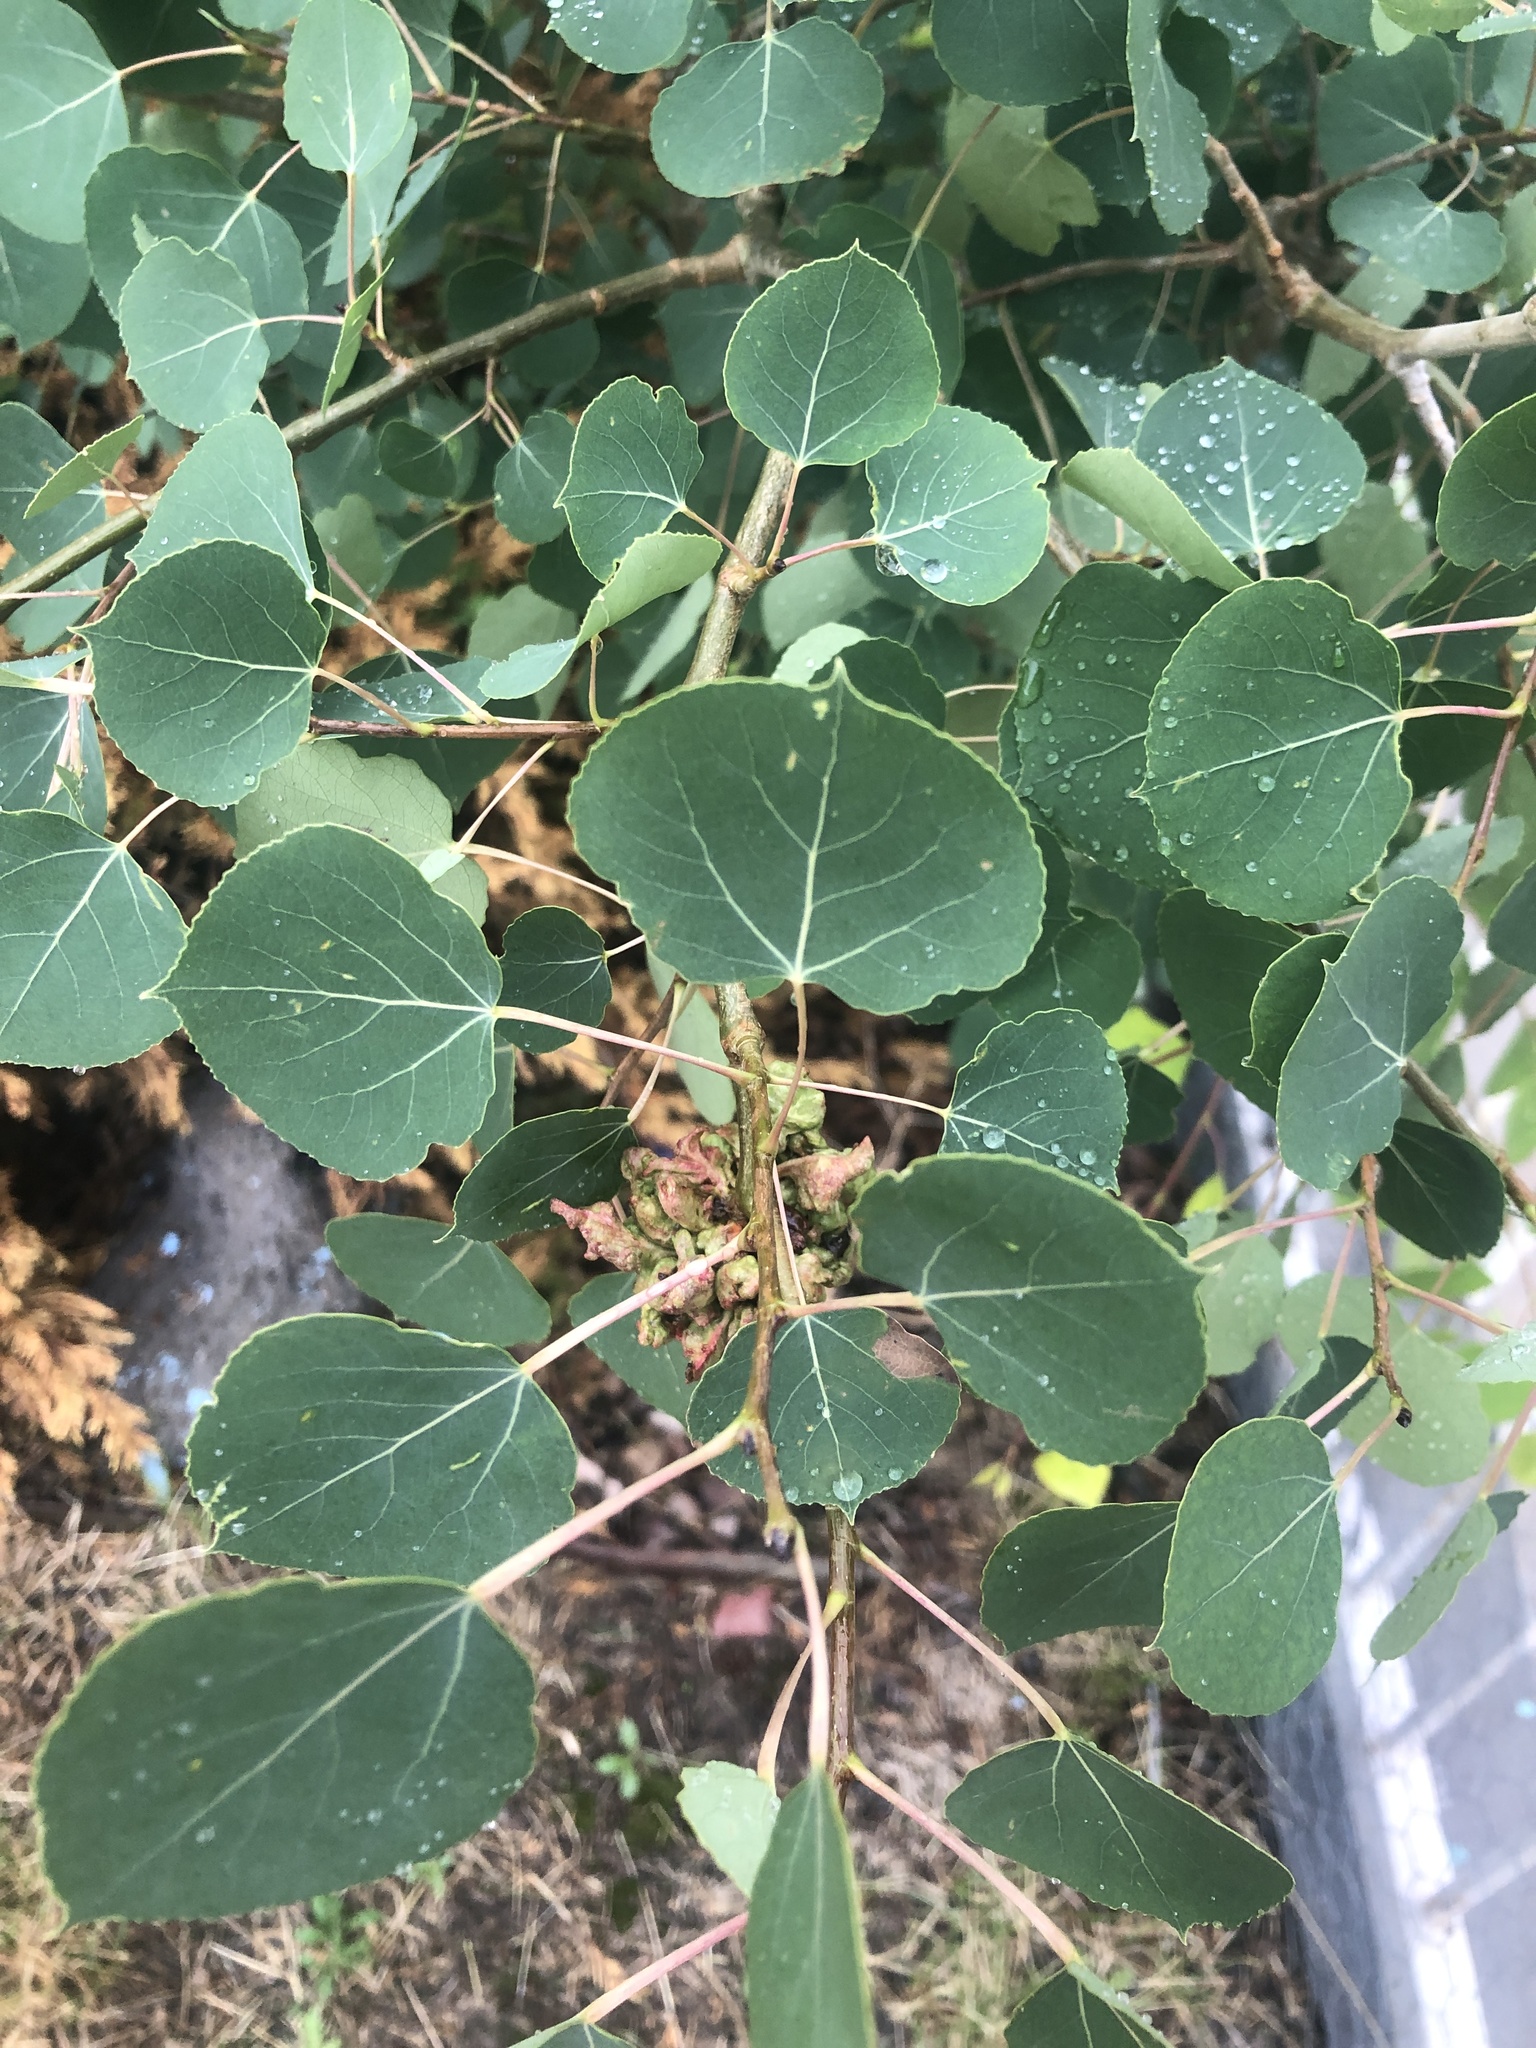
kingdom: Plantae
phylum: Tracheophyta
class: Magnoliopsida
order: Malpighiales
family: Salicaceae
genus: Populus
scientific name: Populus tremuloides
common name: Quaking aspen
